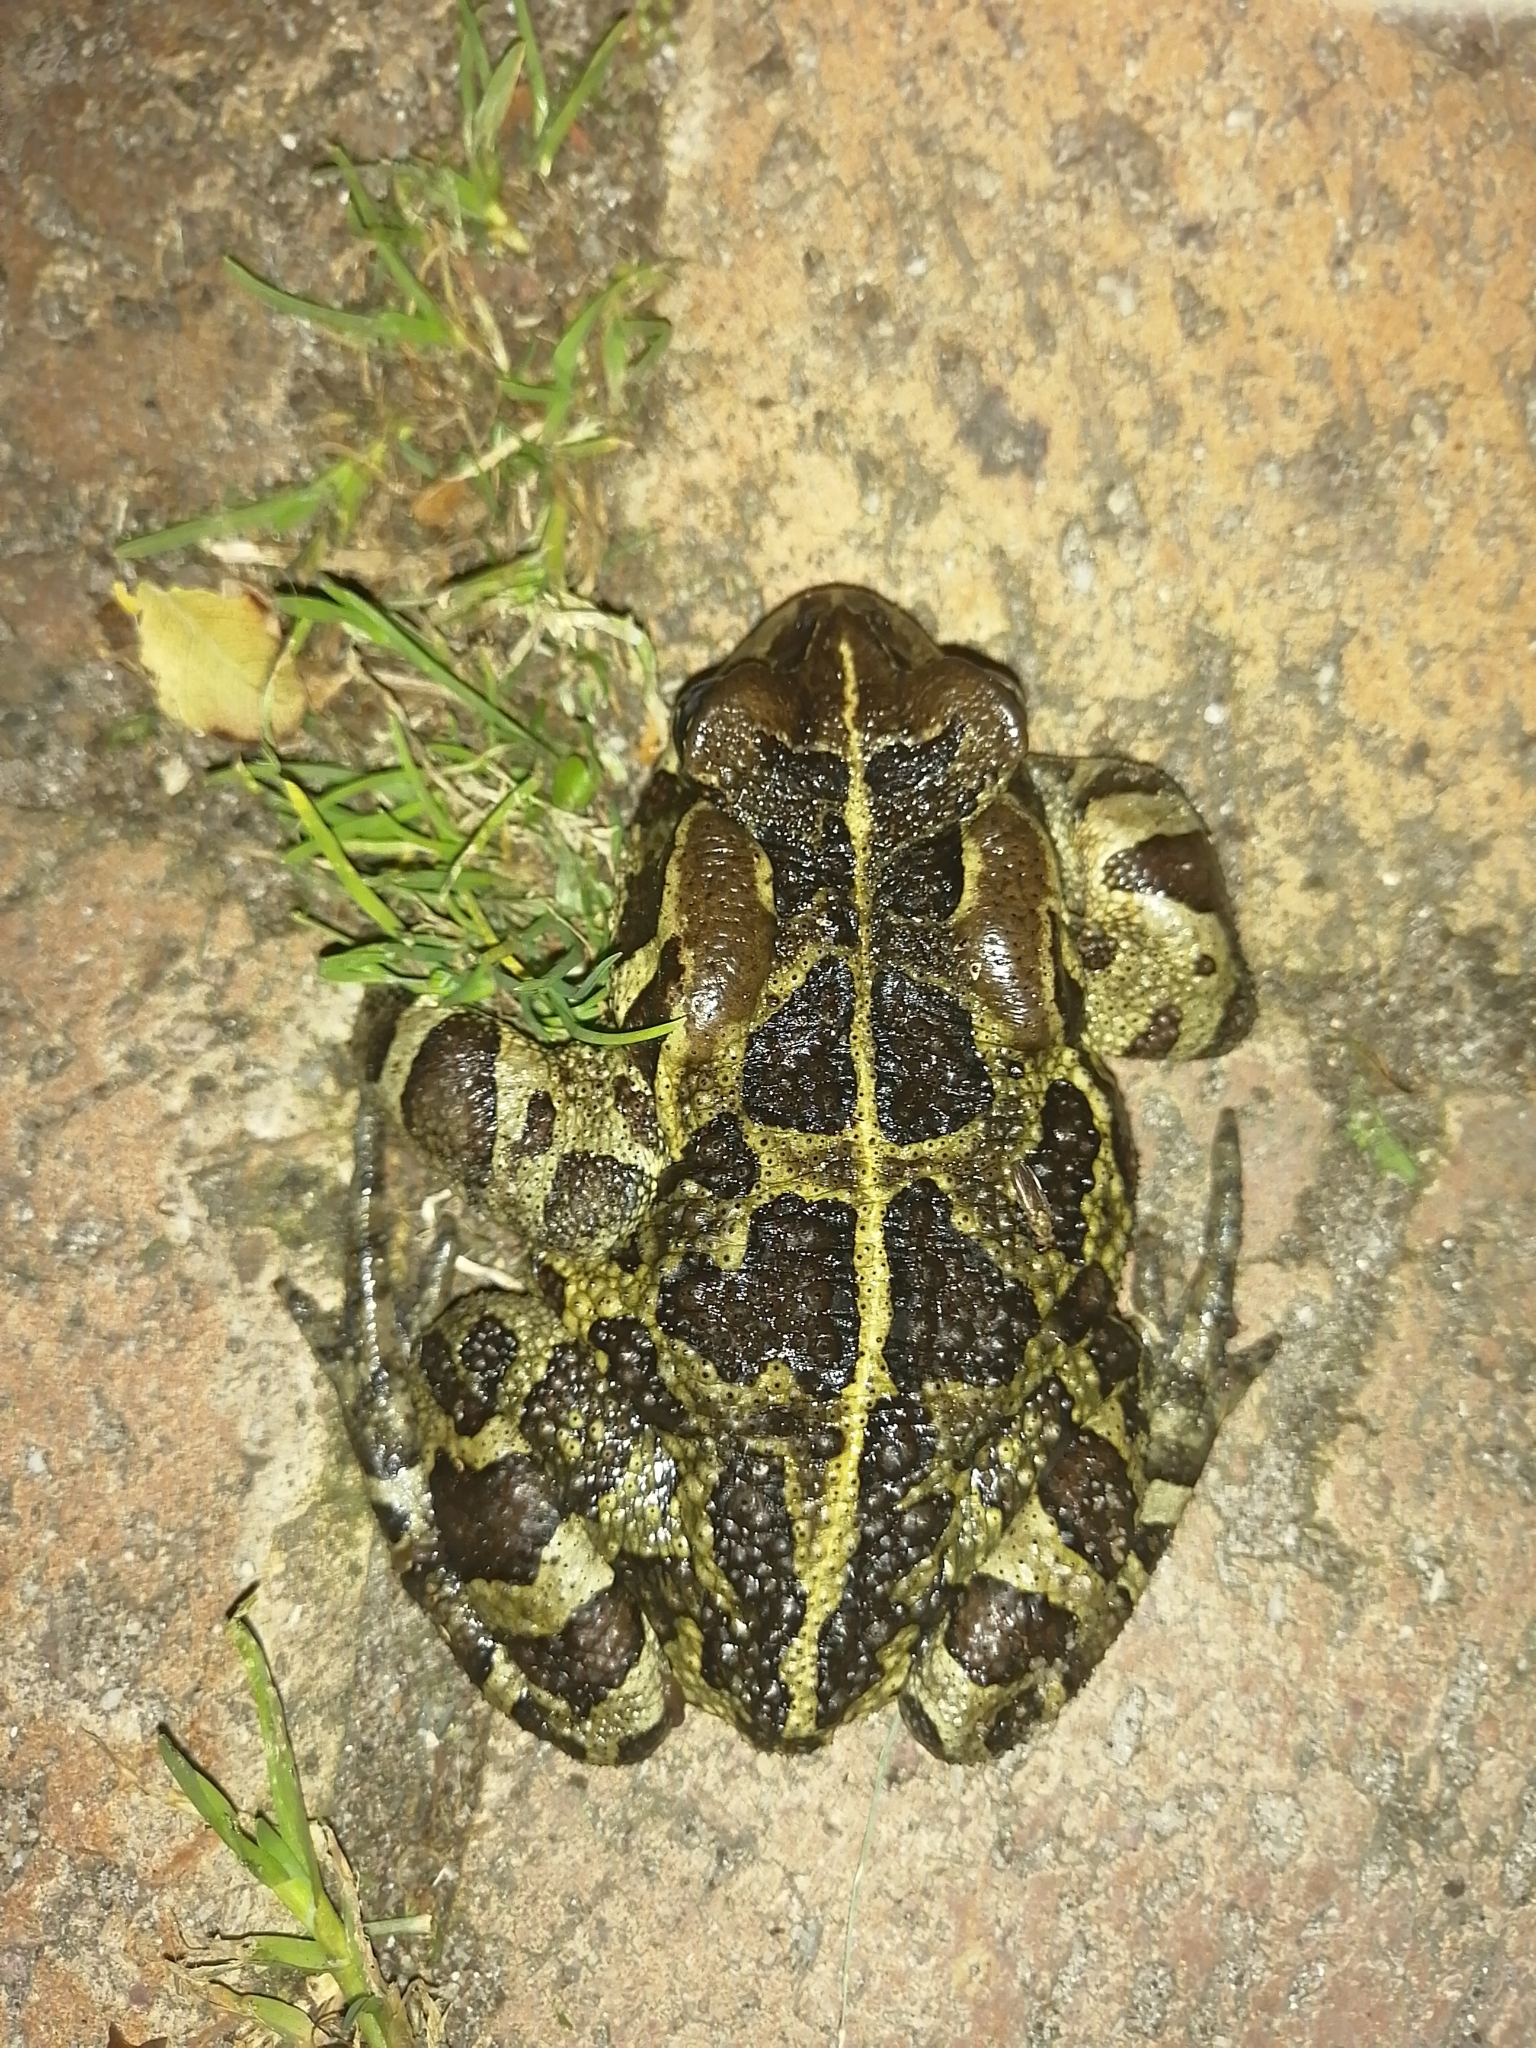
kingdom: Animalia
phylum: Chordata
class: Amphibia
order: Anura
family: Bufonidae
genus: Sclerophrys
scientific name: Sclerophrys pantherina
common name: Panther toad
